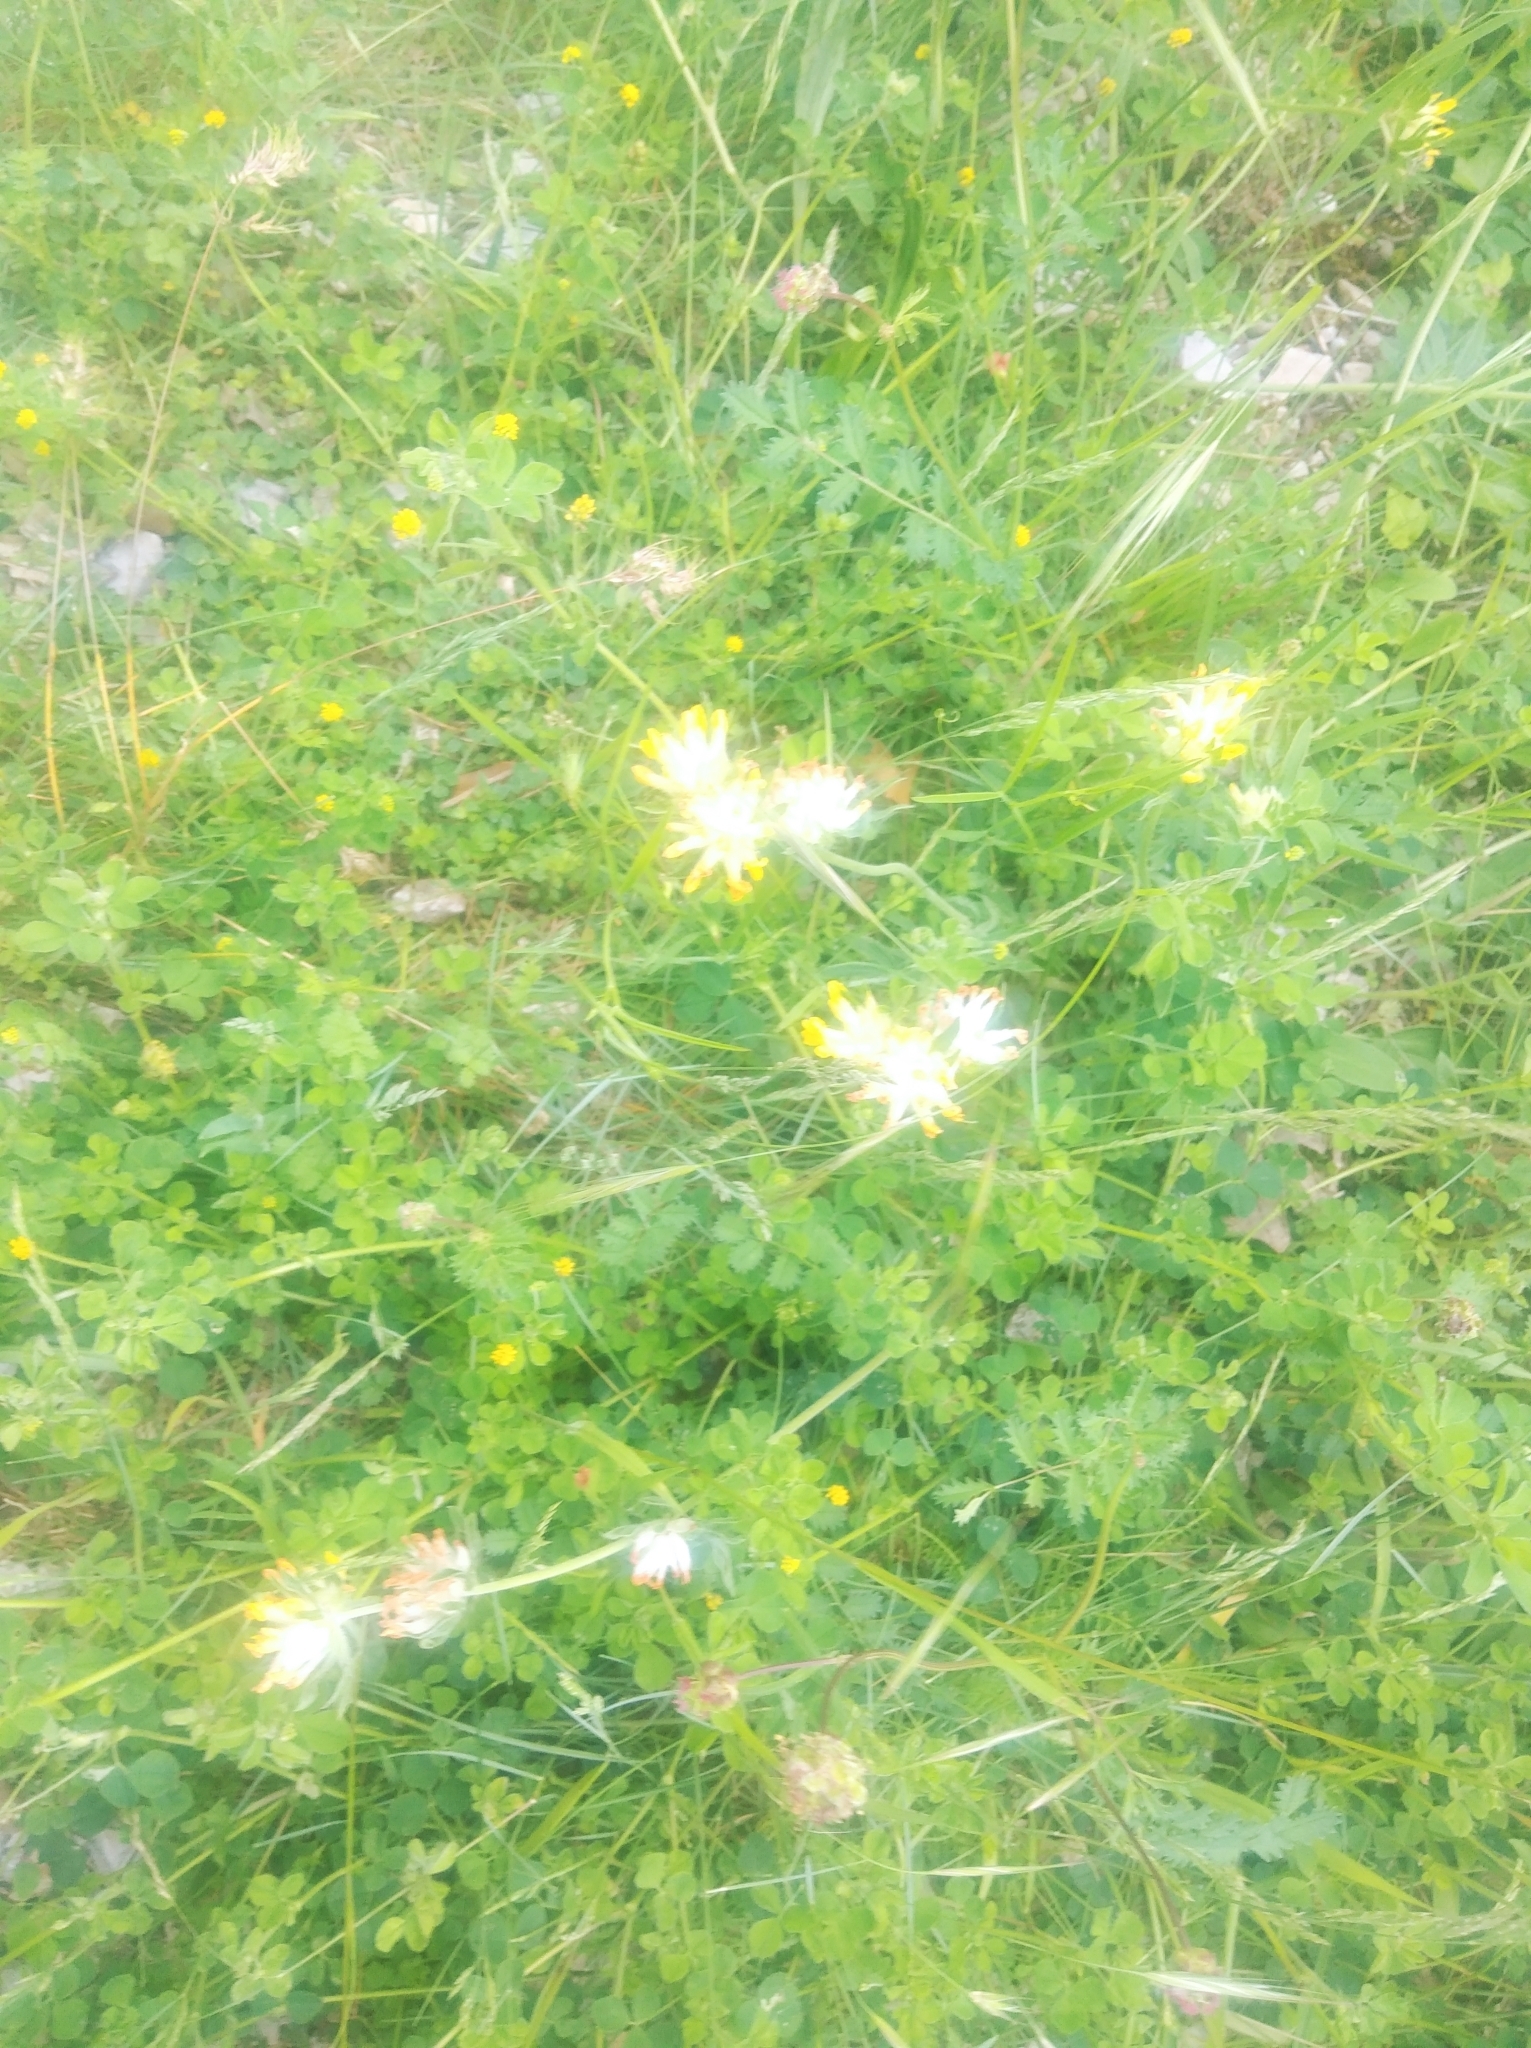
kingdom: Plantae
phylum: Tracheophyta
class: Magnoliopsida
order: Fabales
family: Fabaceae
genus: Anthyllis
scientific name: Anthyllis vulneraria
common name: Kidney vetch
